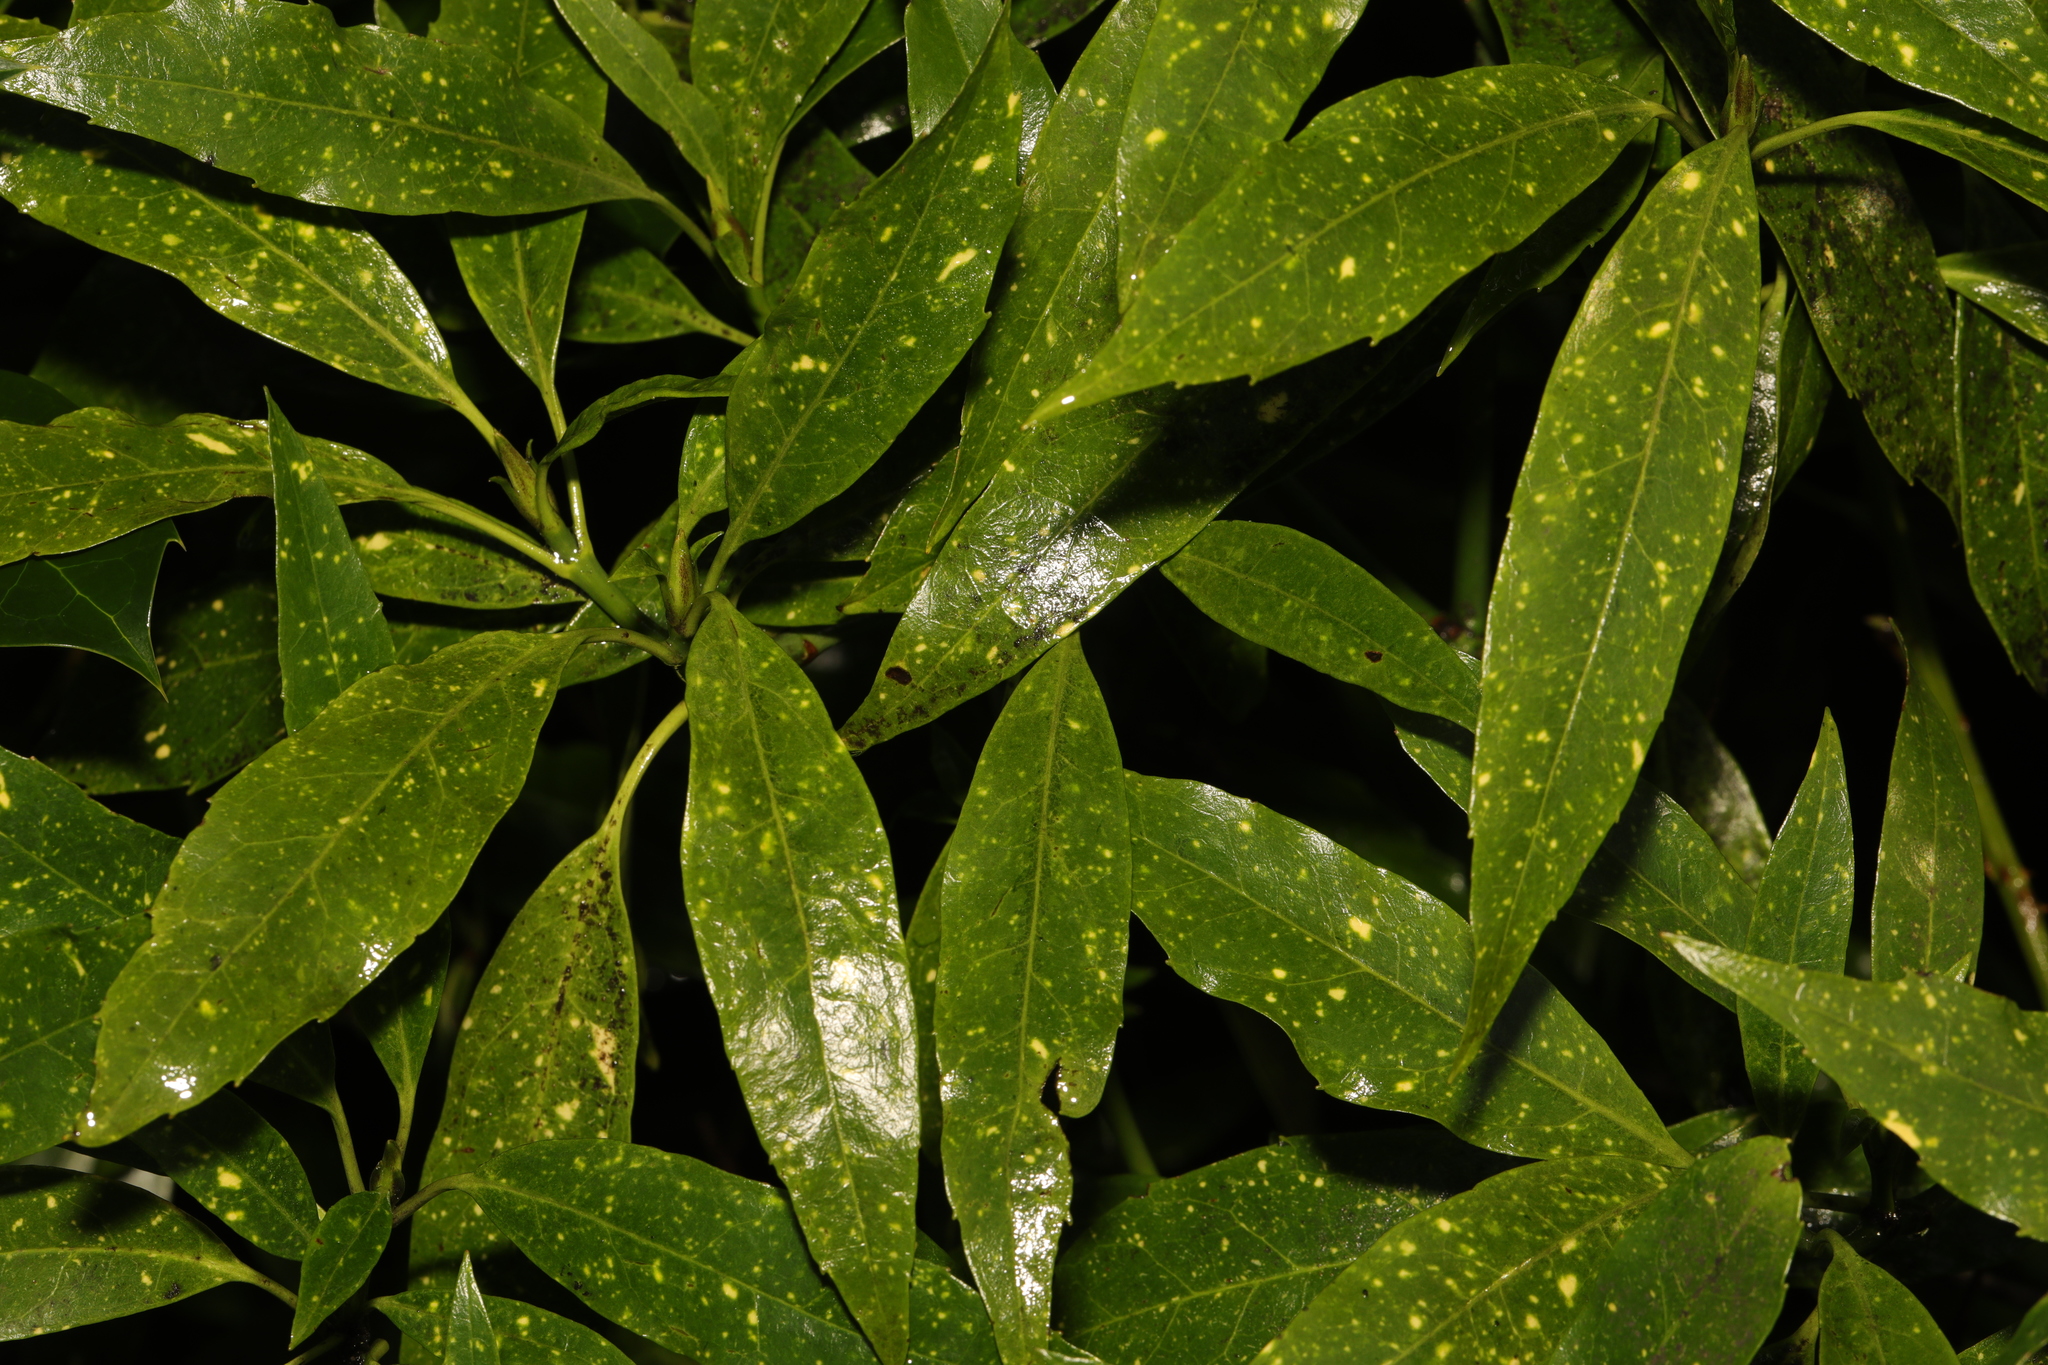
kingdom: Plantae
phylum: Tracheophyta
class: Magnoliopsida
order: Garryales
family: Garryaceae
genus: Aucuba
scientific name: Aucuba japonica
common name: Spotted-laurel
